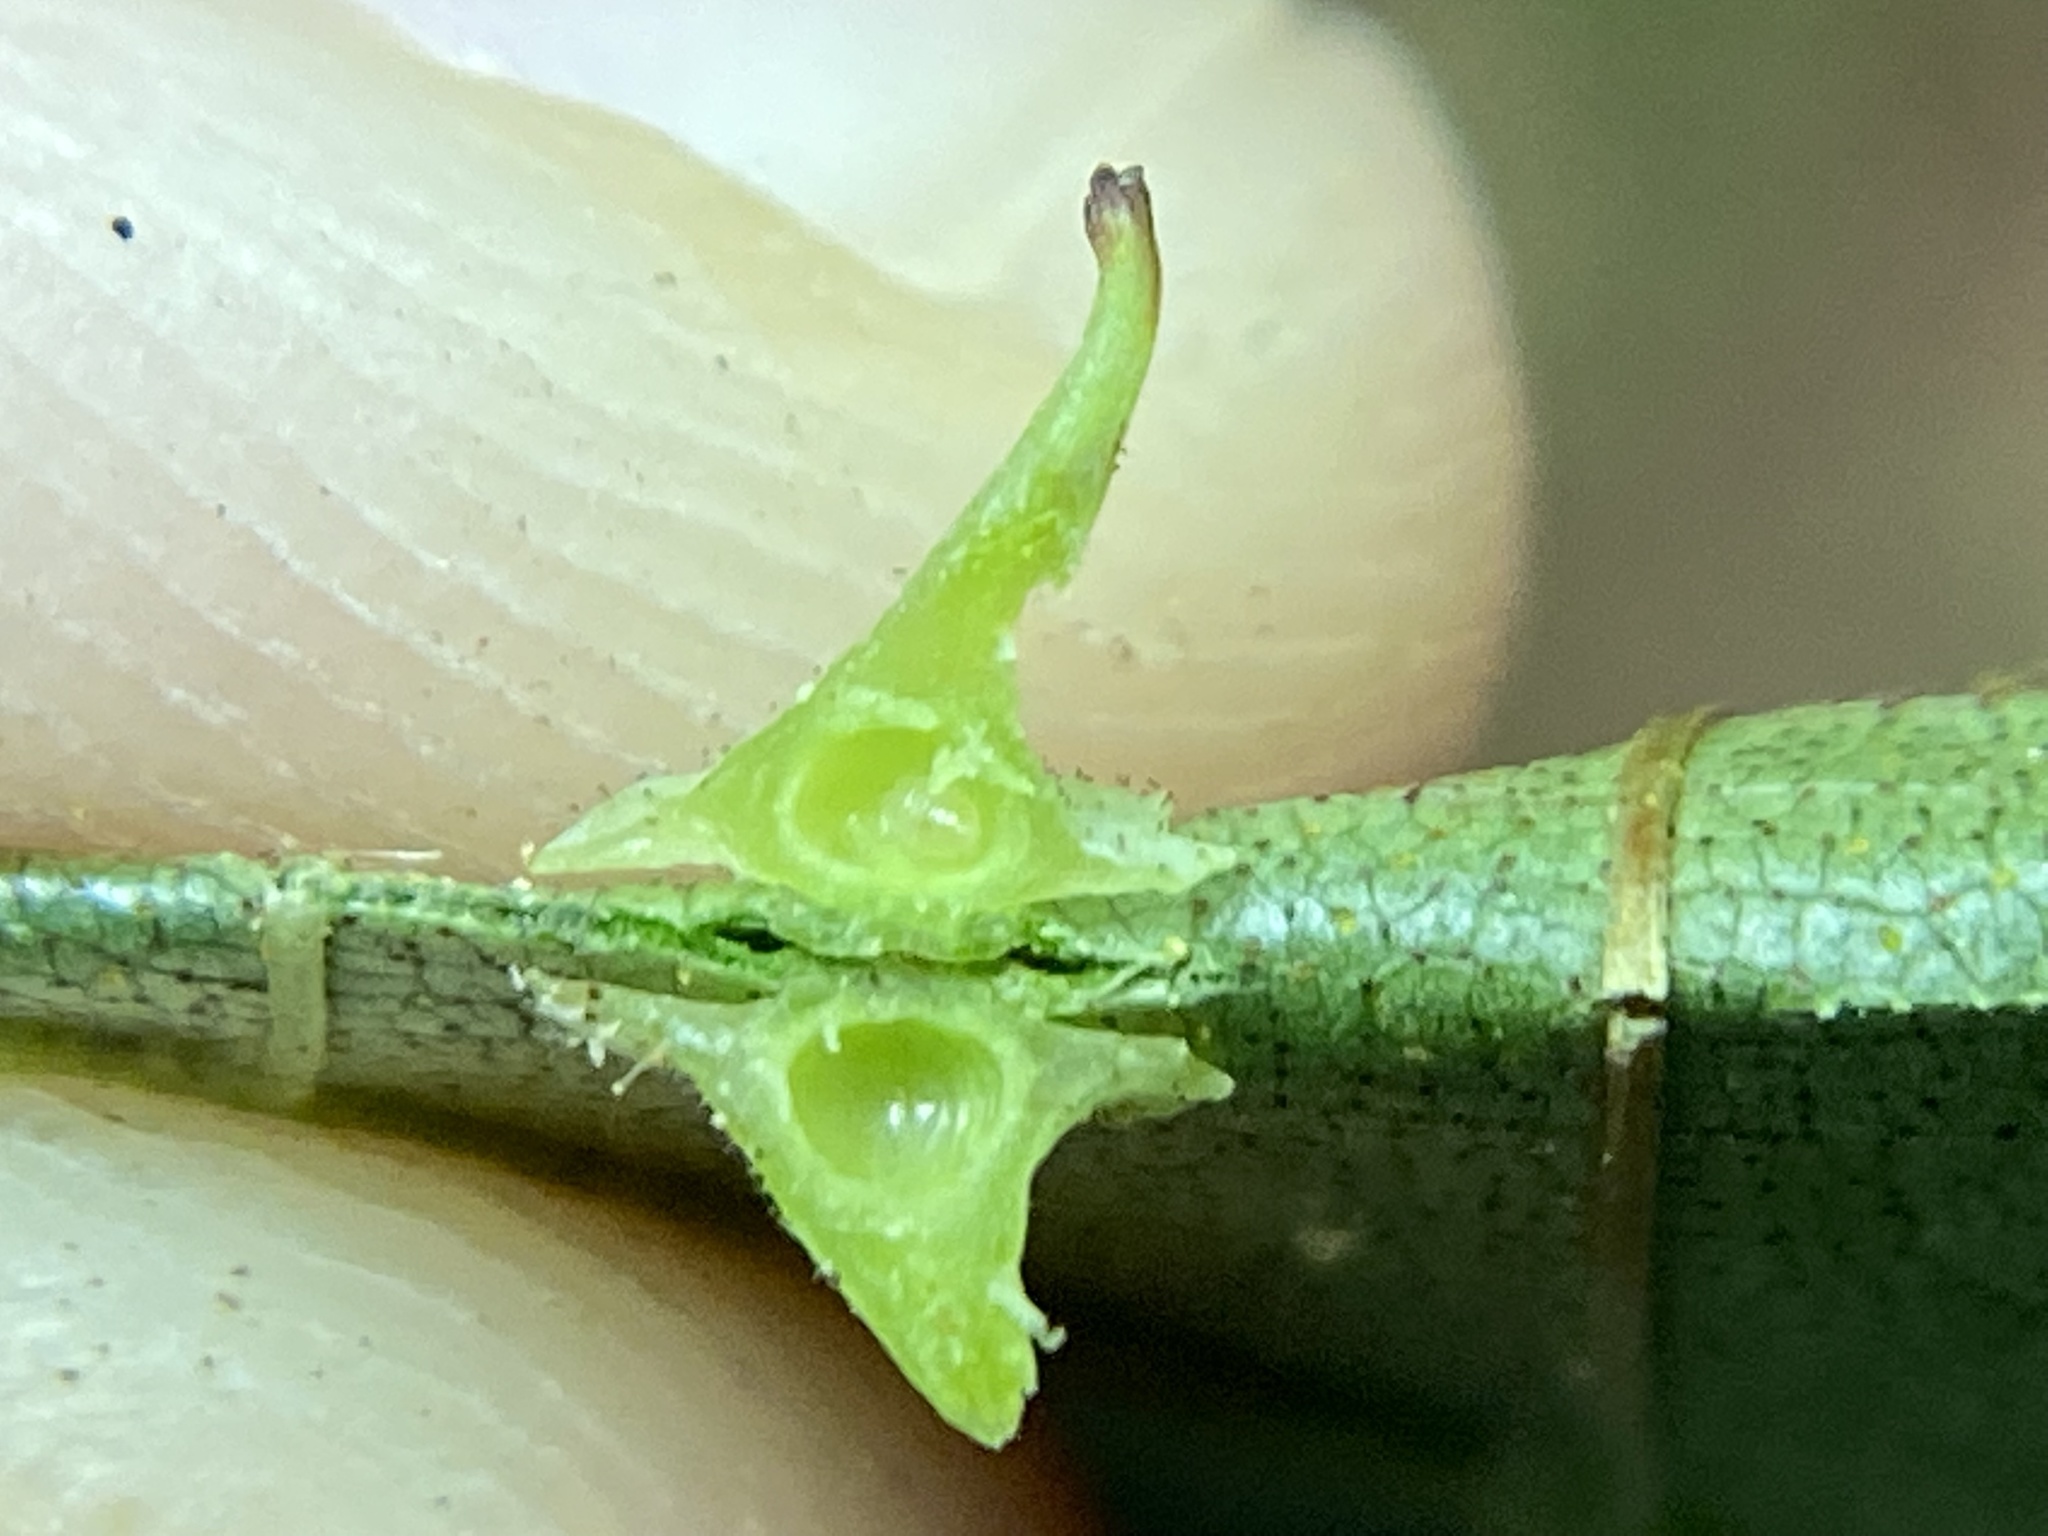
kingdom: Animalia
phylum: Arthropoda
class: Insecta
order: Diptera
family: Cecidomyiidae
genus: Caryomyia
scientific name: Caryomyia stellata
